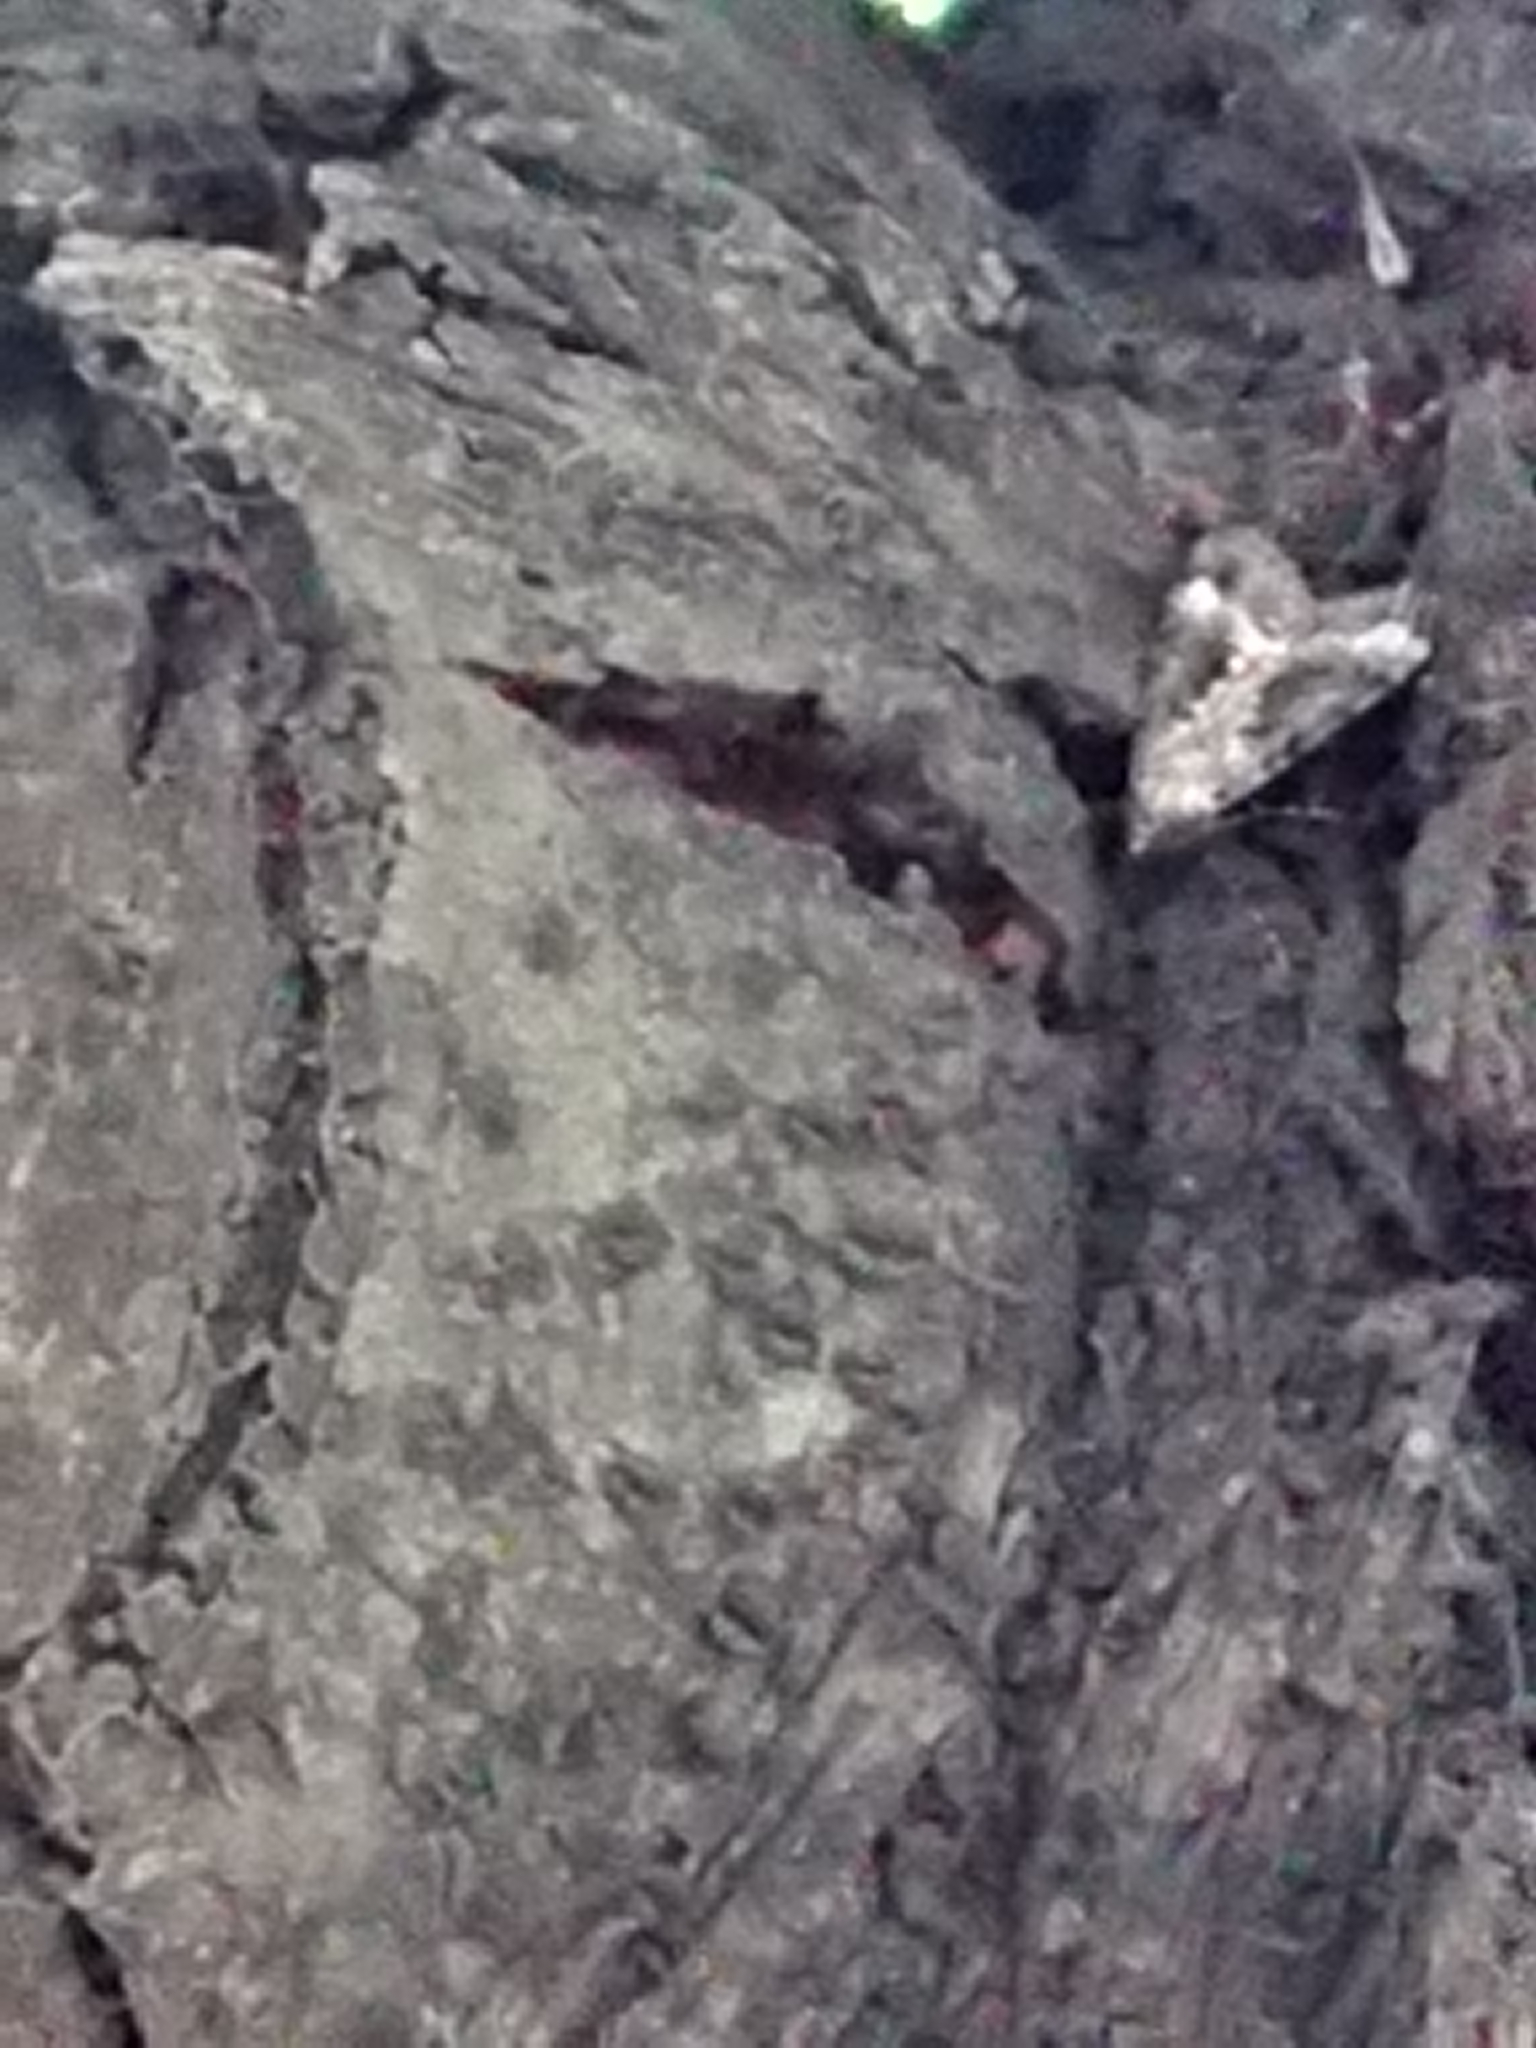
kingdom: Animalia
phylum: Arthropoda
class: Insecta
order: Lepidoptera
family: Geometridae
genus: Pseudocoremia
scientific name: Pseudocoremia leucelaea
